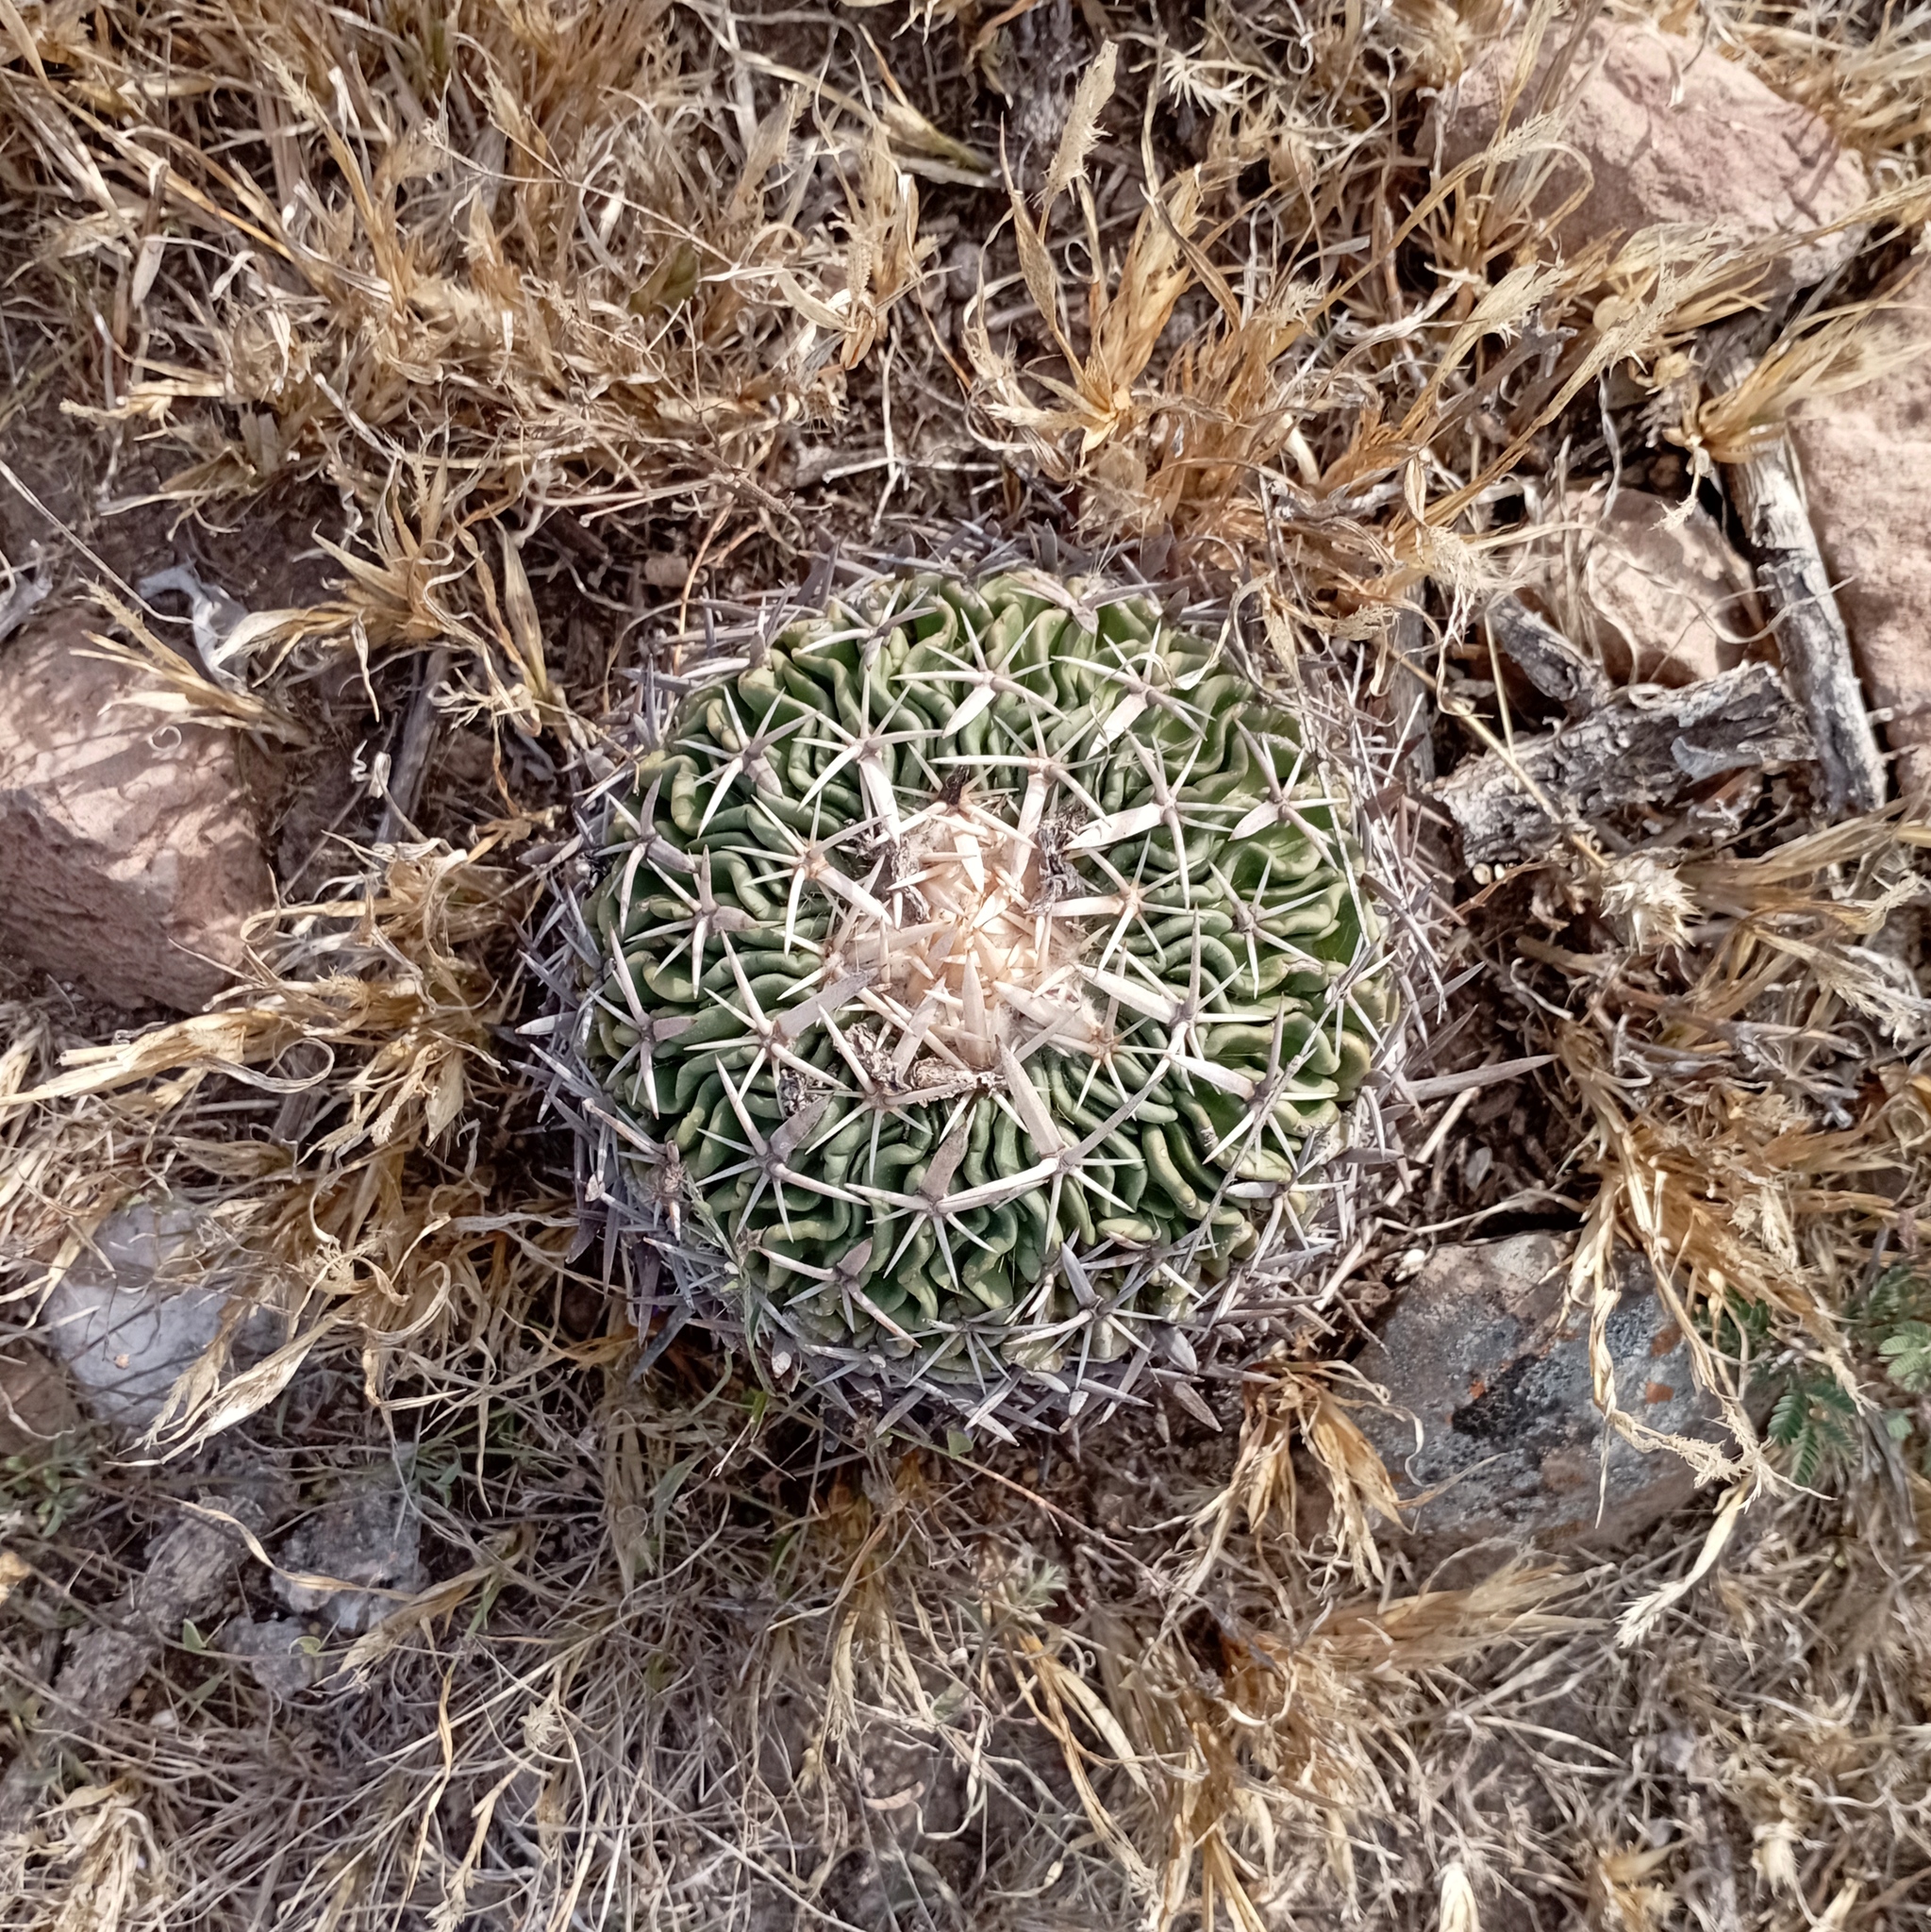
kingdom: Plantae
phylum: Tracheophyta
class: Magnoliopsida
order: Caryophyllales
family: Cactaceae
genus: Stenocactus
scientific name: Stenocactus crispatus
